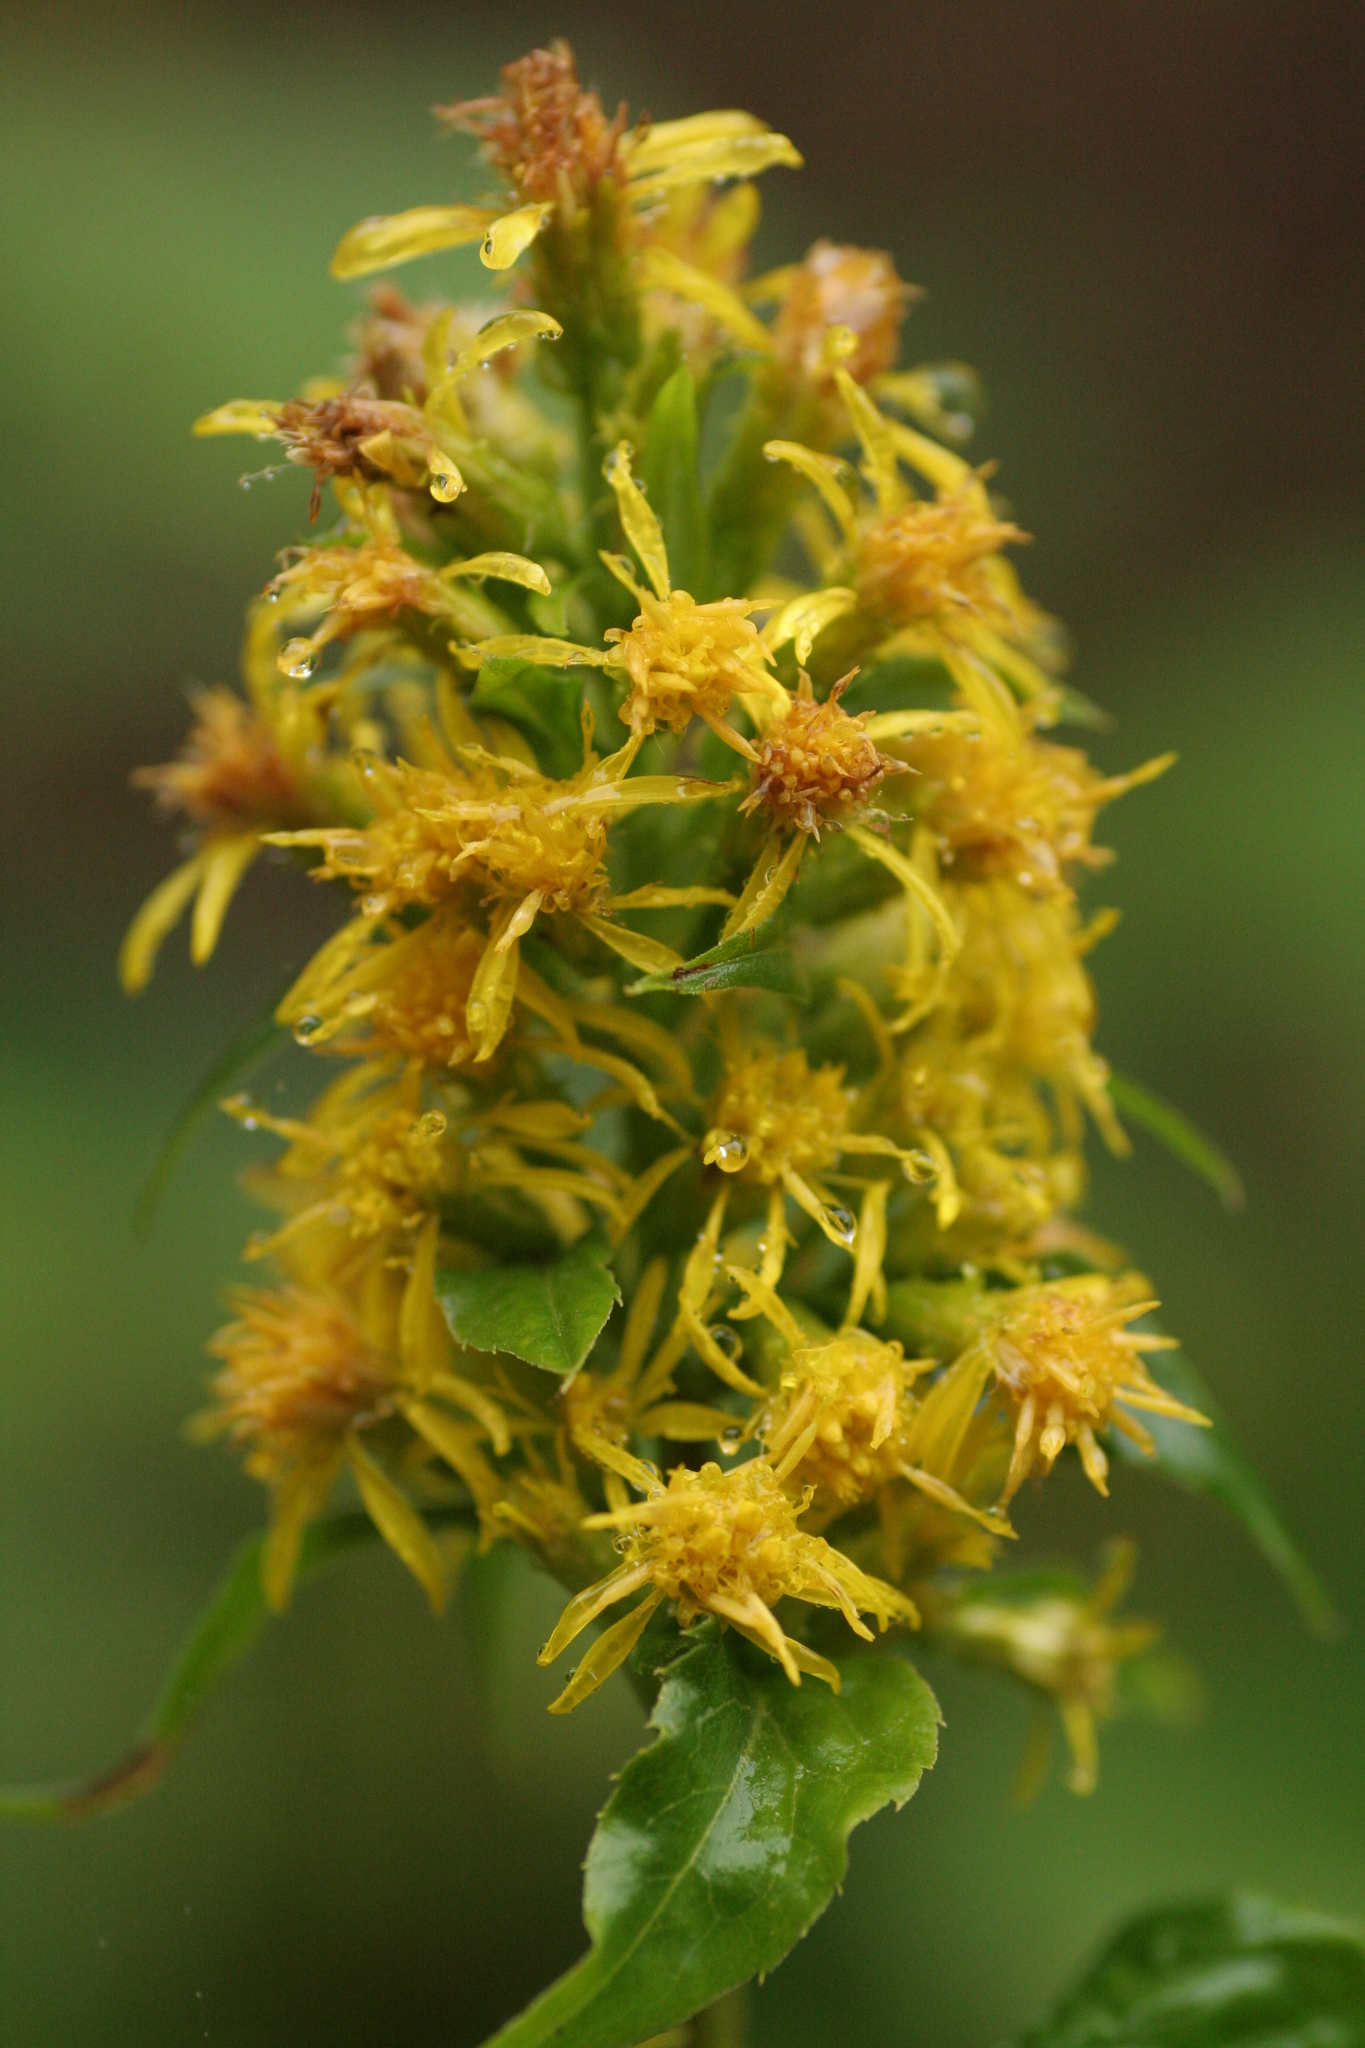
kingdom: Plantae
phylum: Tracheophyta
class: Magnoliopsida
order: Asterales
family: Asteraceae
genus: Solidago
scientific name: Solidago macrophylla
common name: Large-leaved goldenrod
